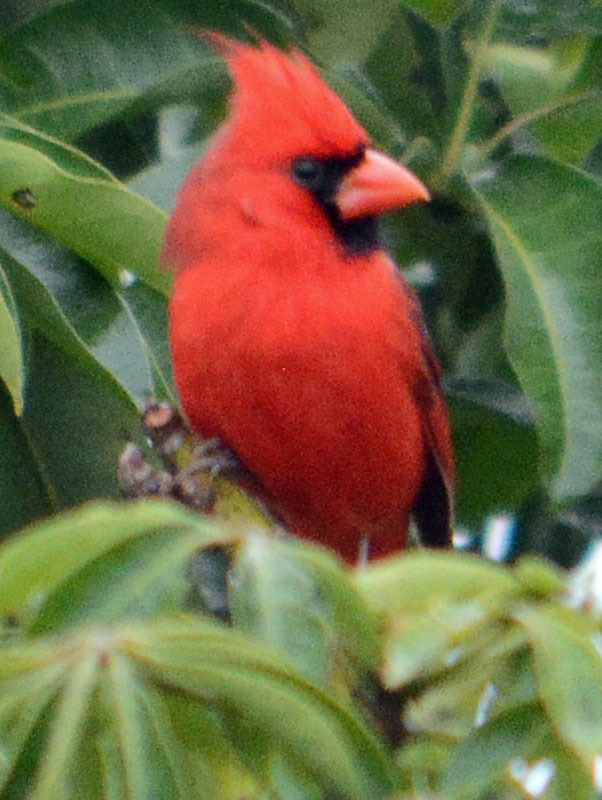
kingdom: Animalia
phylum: Chordata
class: Aves
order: Passeriformes
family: Cardinalidae
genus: Cardinalis
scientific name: Cardinalis cardinalis
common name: Northern cardinal
